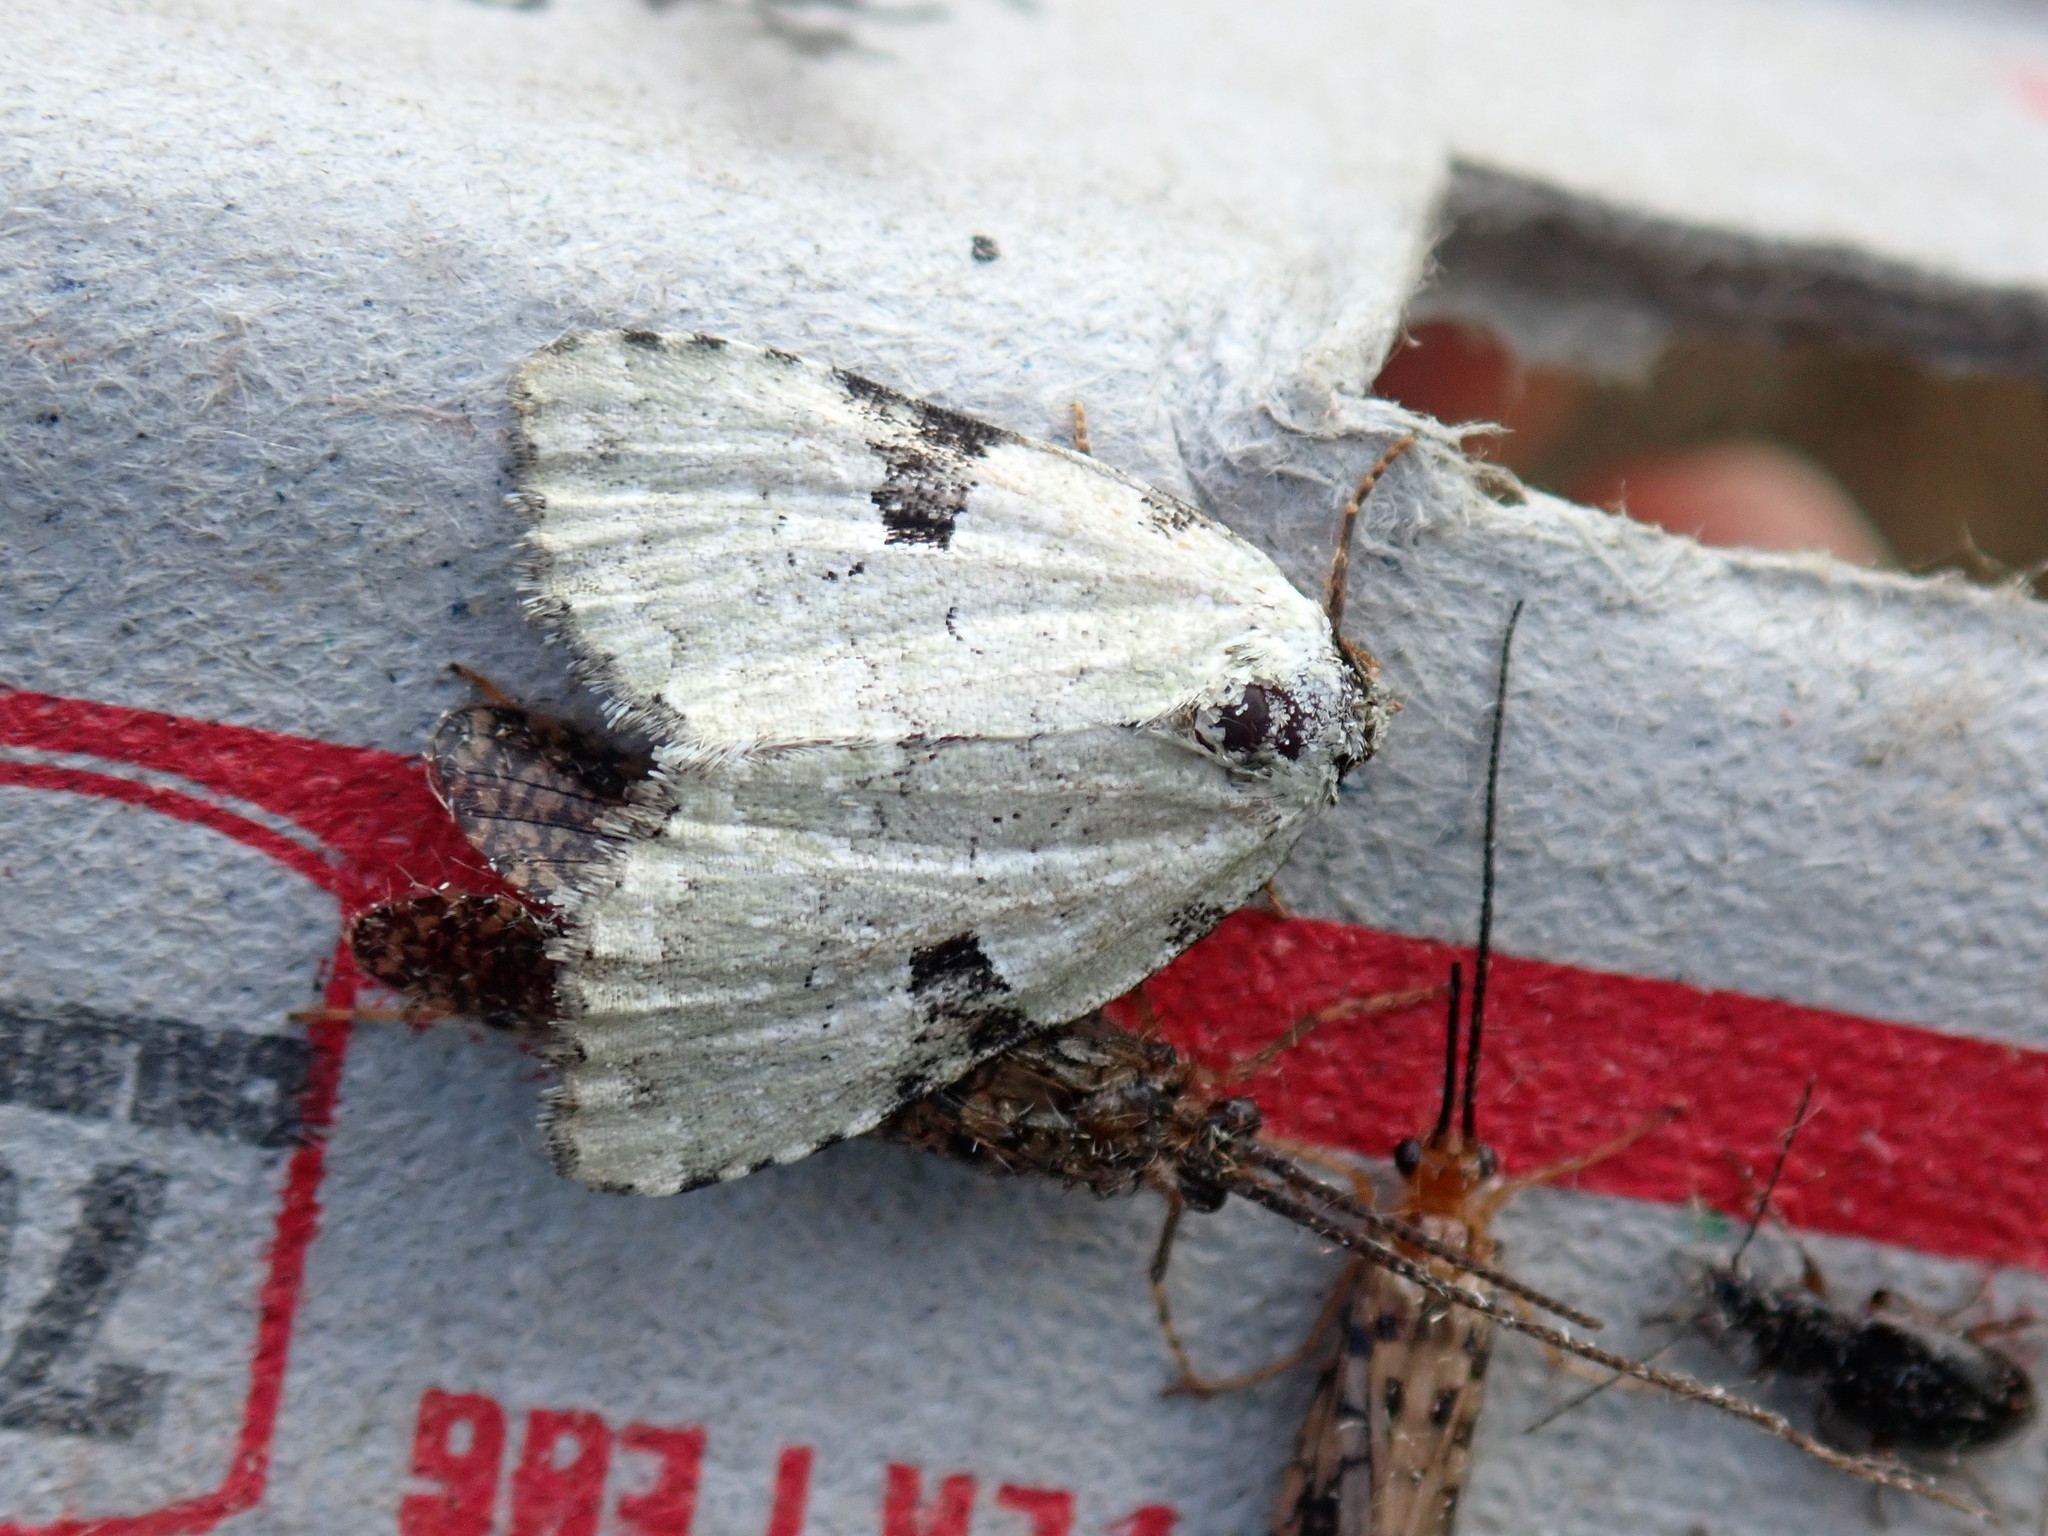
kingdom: Animalia
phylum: Arthropoda
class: Insecta
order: Lepidoptera
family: Noctuidae
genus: Leuconycta
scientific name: Leuconycta diphteroides
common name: Green leuconycta moth
